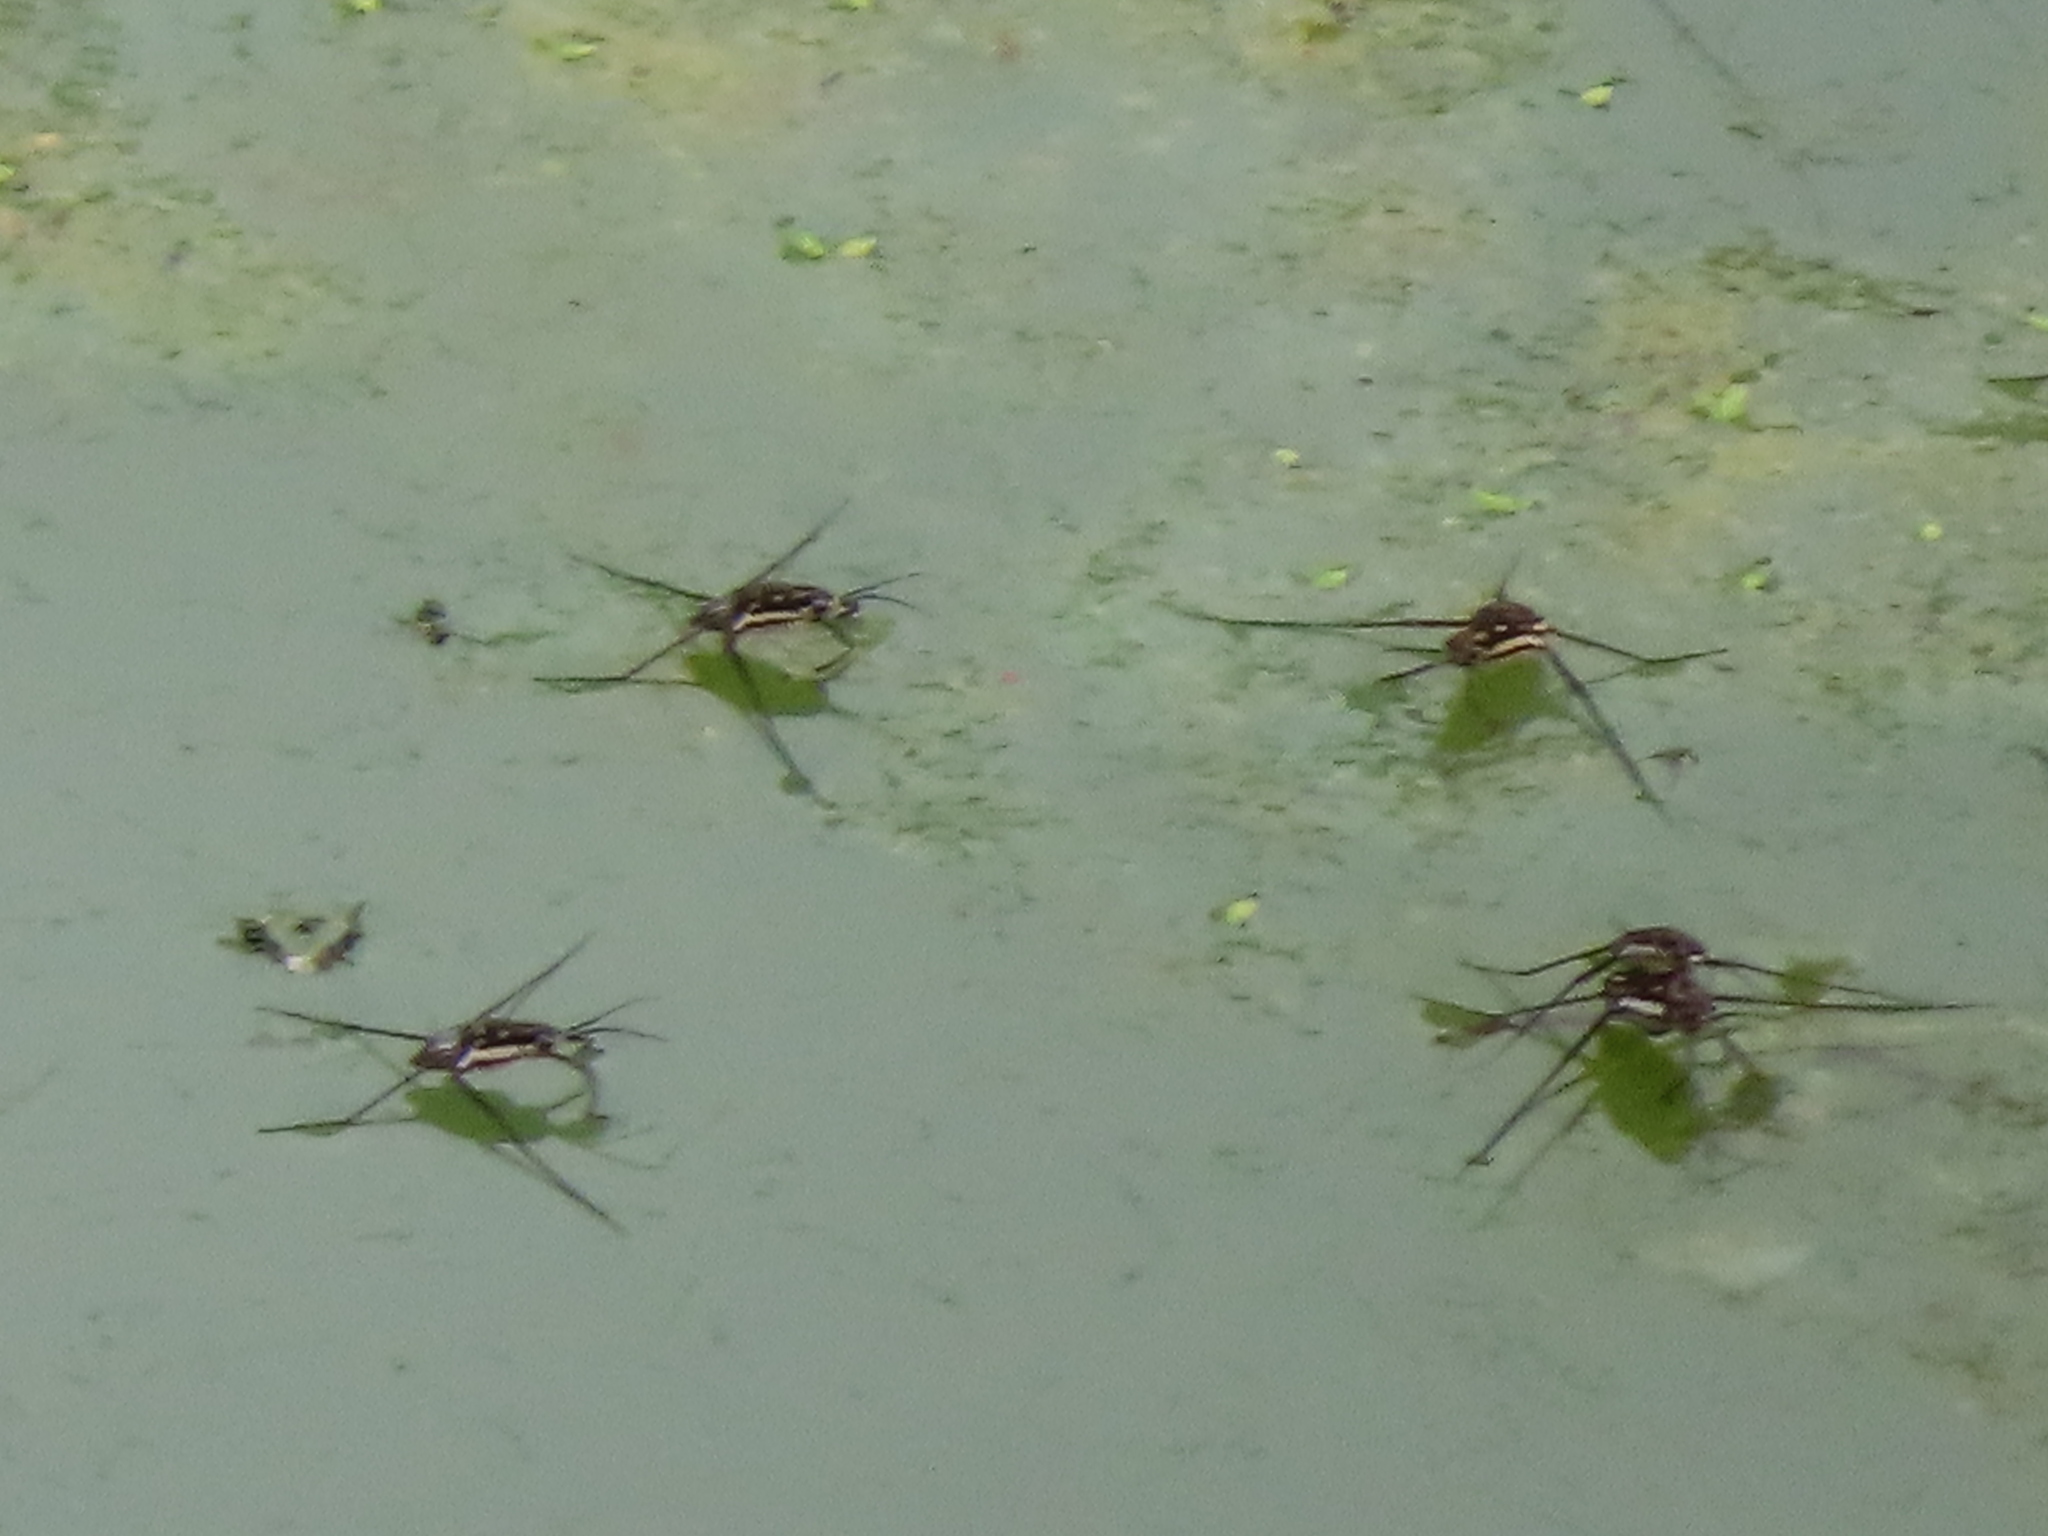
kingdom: Animalia
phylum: Arthropoda
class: Insecta
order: Hemiptera
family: Gerridae
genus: Trepobates
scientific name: Trepobates subnitidus
